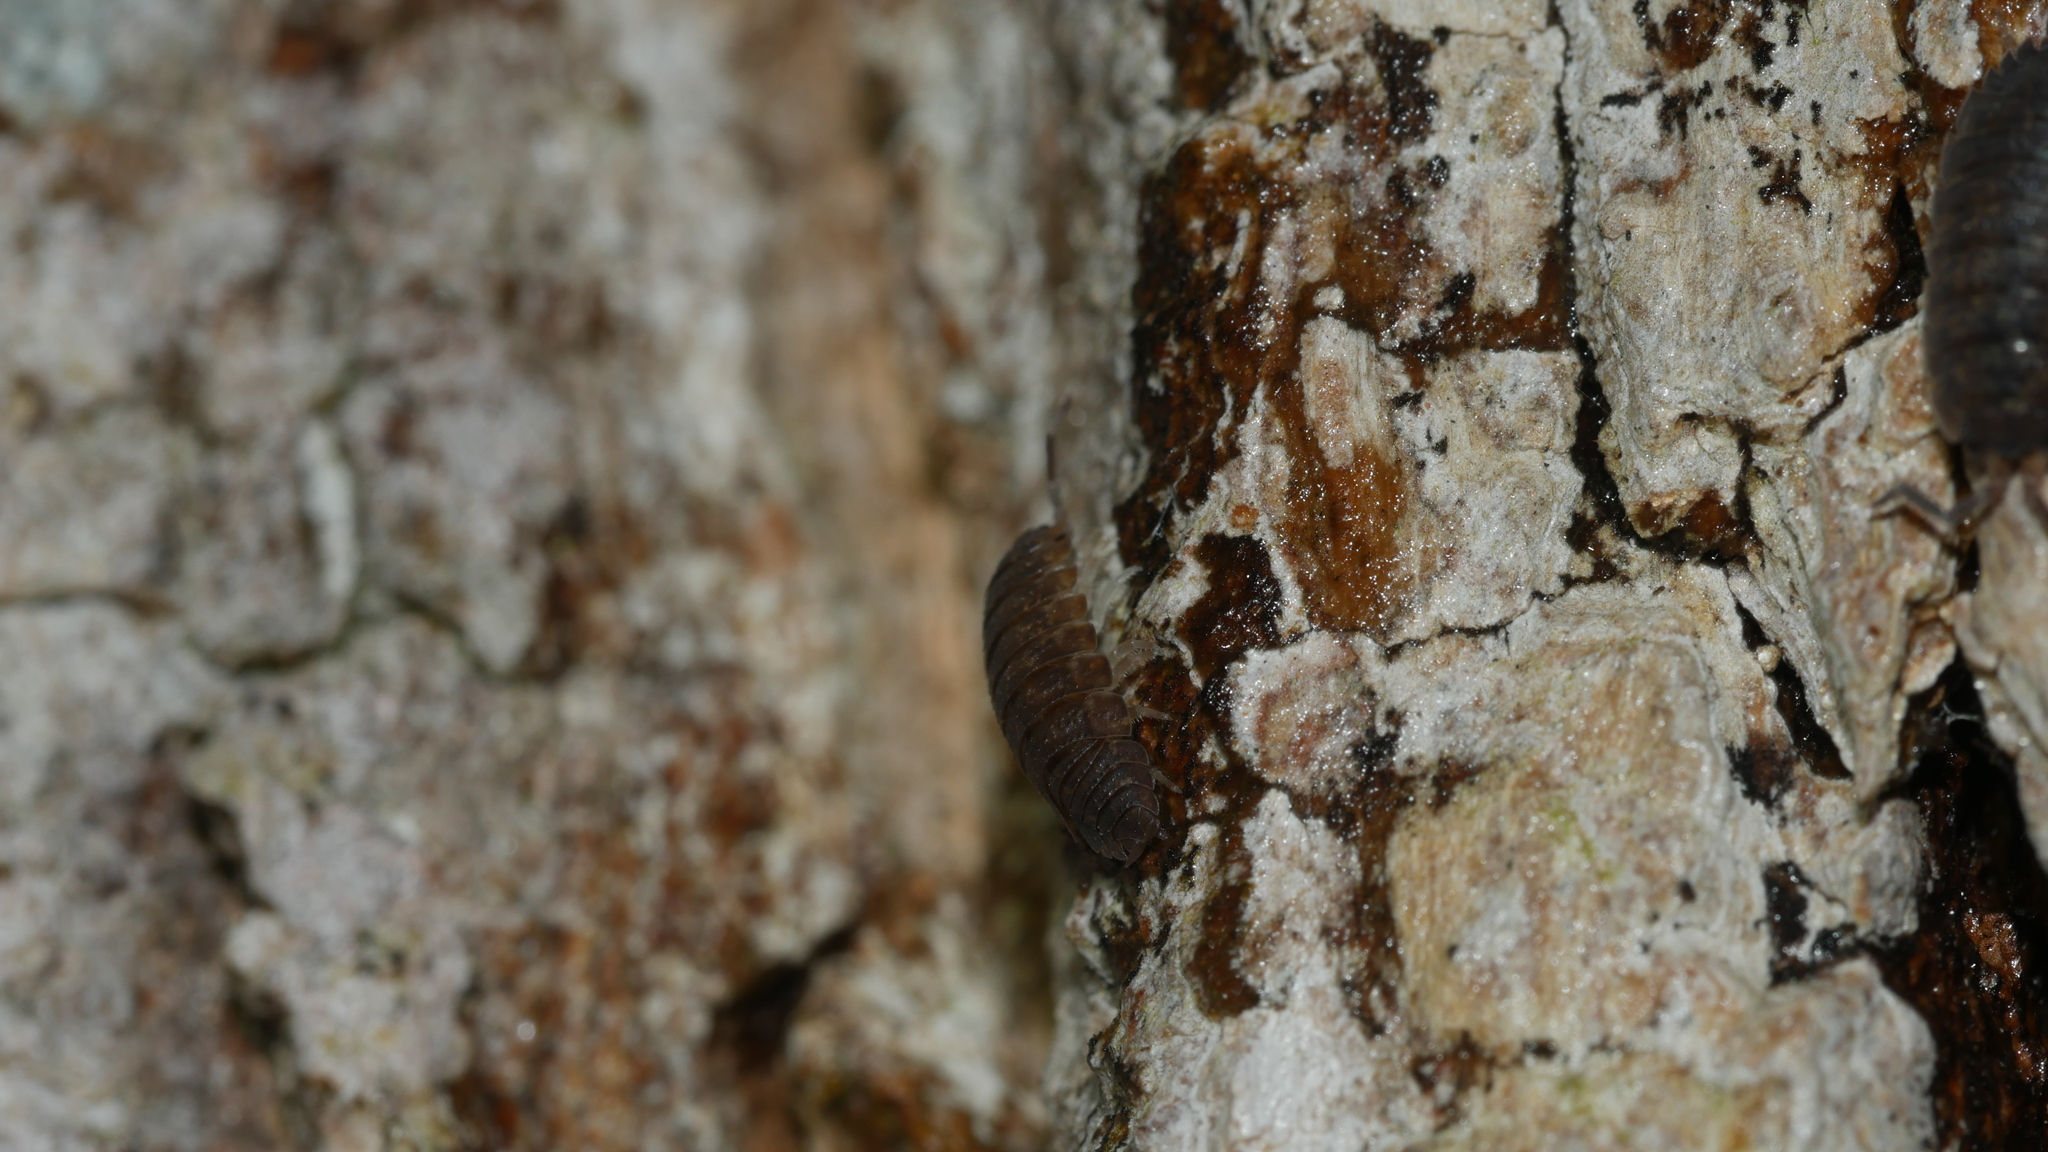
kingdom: Animalia
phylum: Arthropoda
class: Malacostraca
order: Isopoda
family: Porcellionidae
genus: Porcellio
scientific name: Porcellio scaber
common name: Common rough woodlouse
